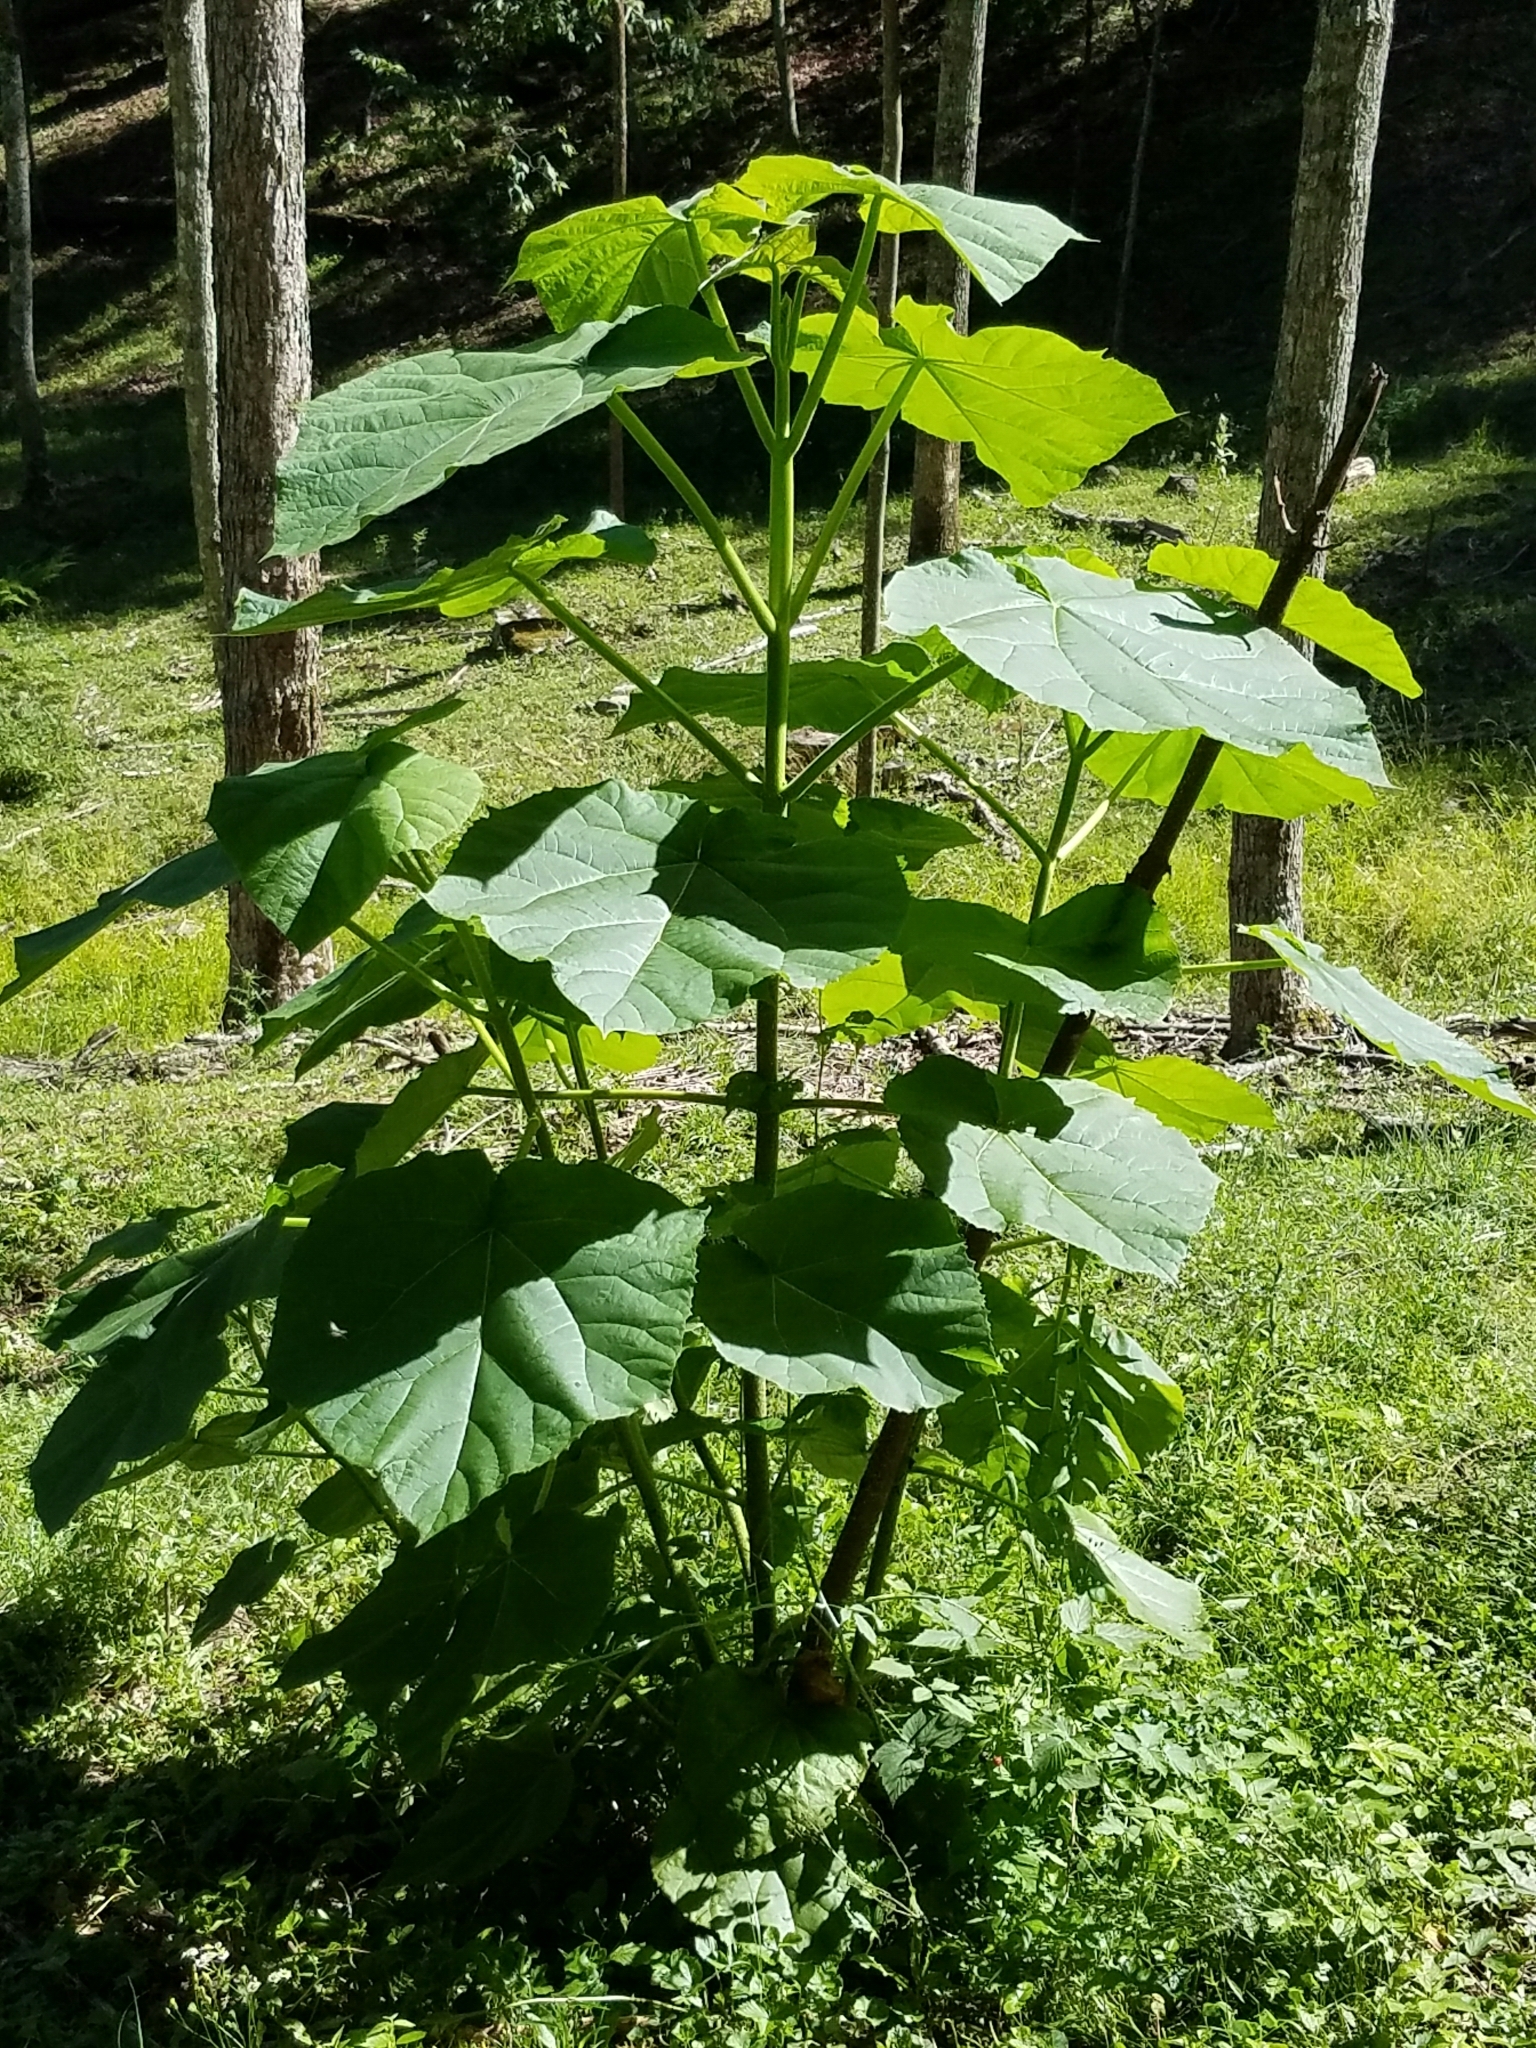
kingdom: Plantae
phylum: Tracheophyta
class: Magnoliopsida
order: Lamiales
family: Paulowniaceae
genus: Paulownia
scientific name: Paulownia tomentosa
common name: Foxglove-tree
